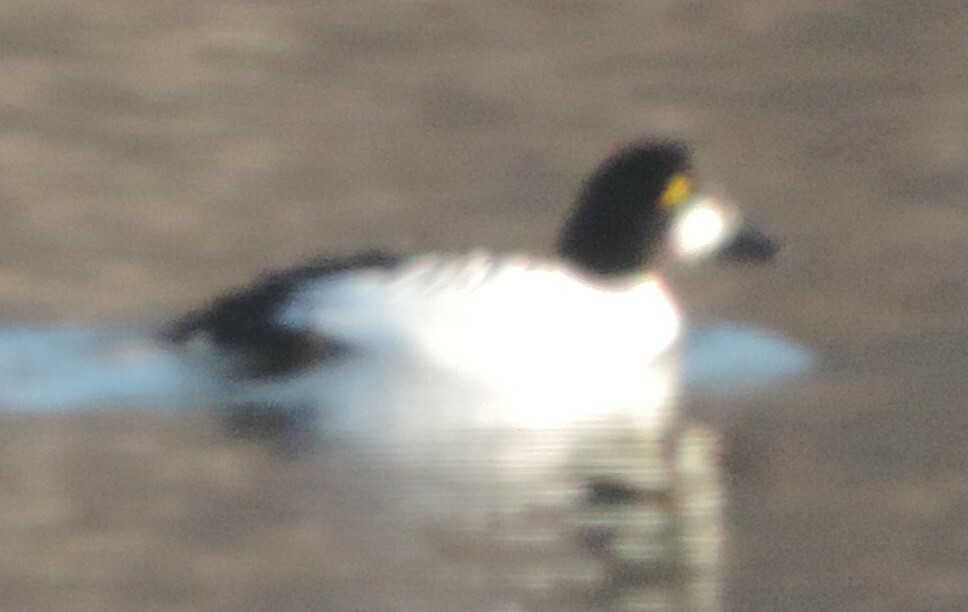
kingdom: Animalia
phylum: Chordata
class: Aves
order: Anseriformes
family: Anatidae
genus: Bucephala
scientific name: Bucephala clangula
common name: Common goldeneye
